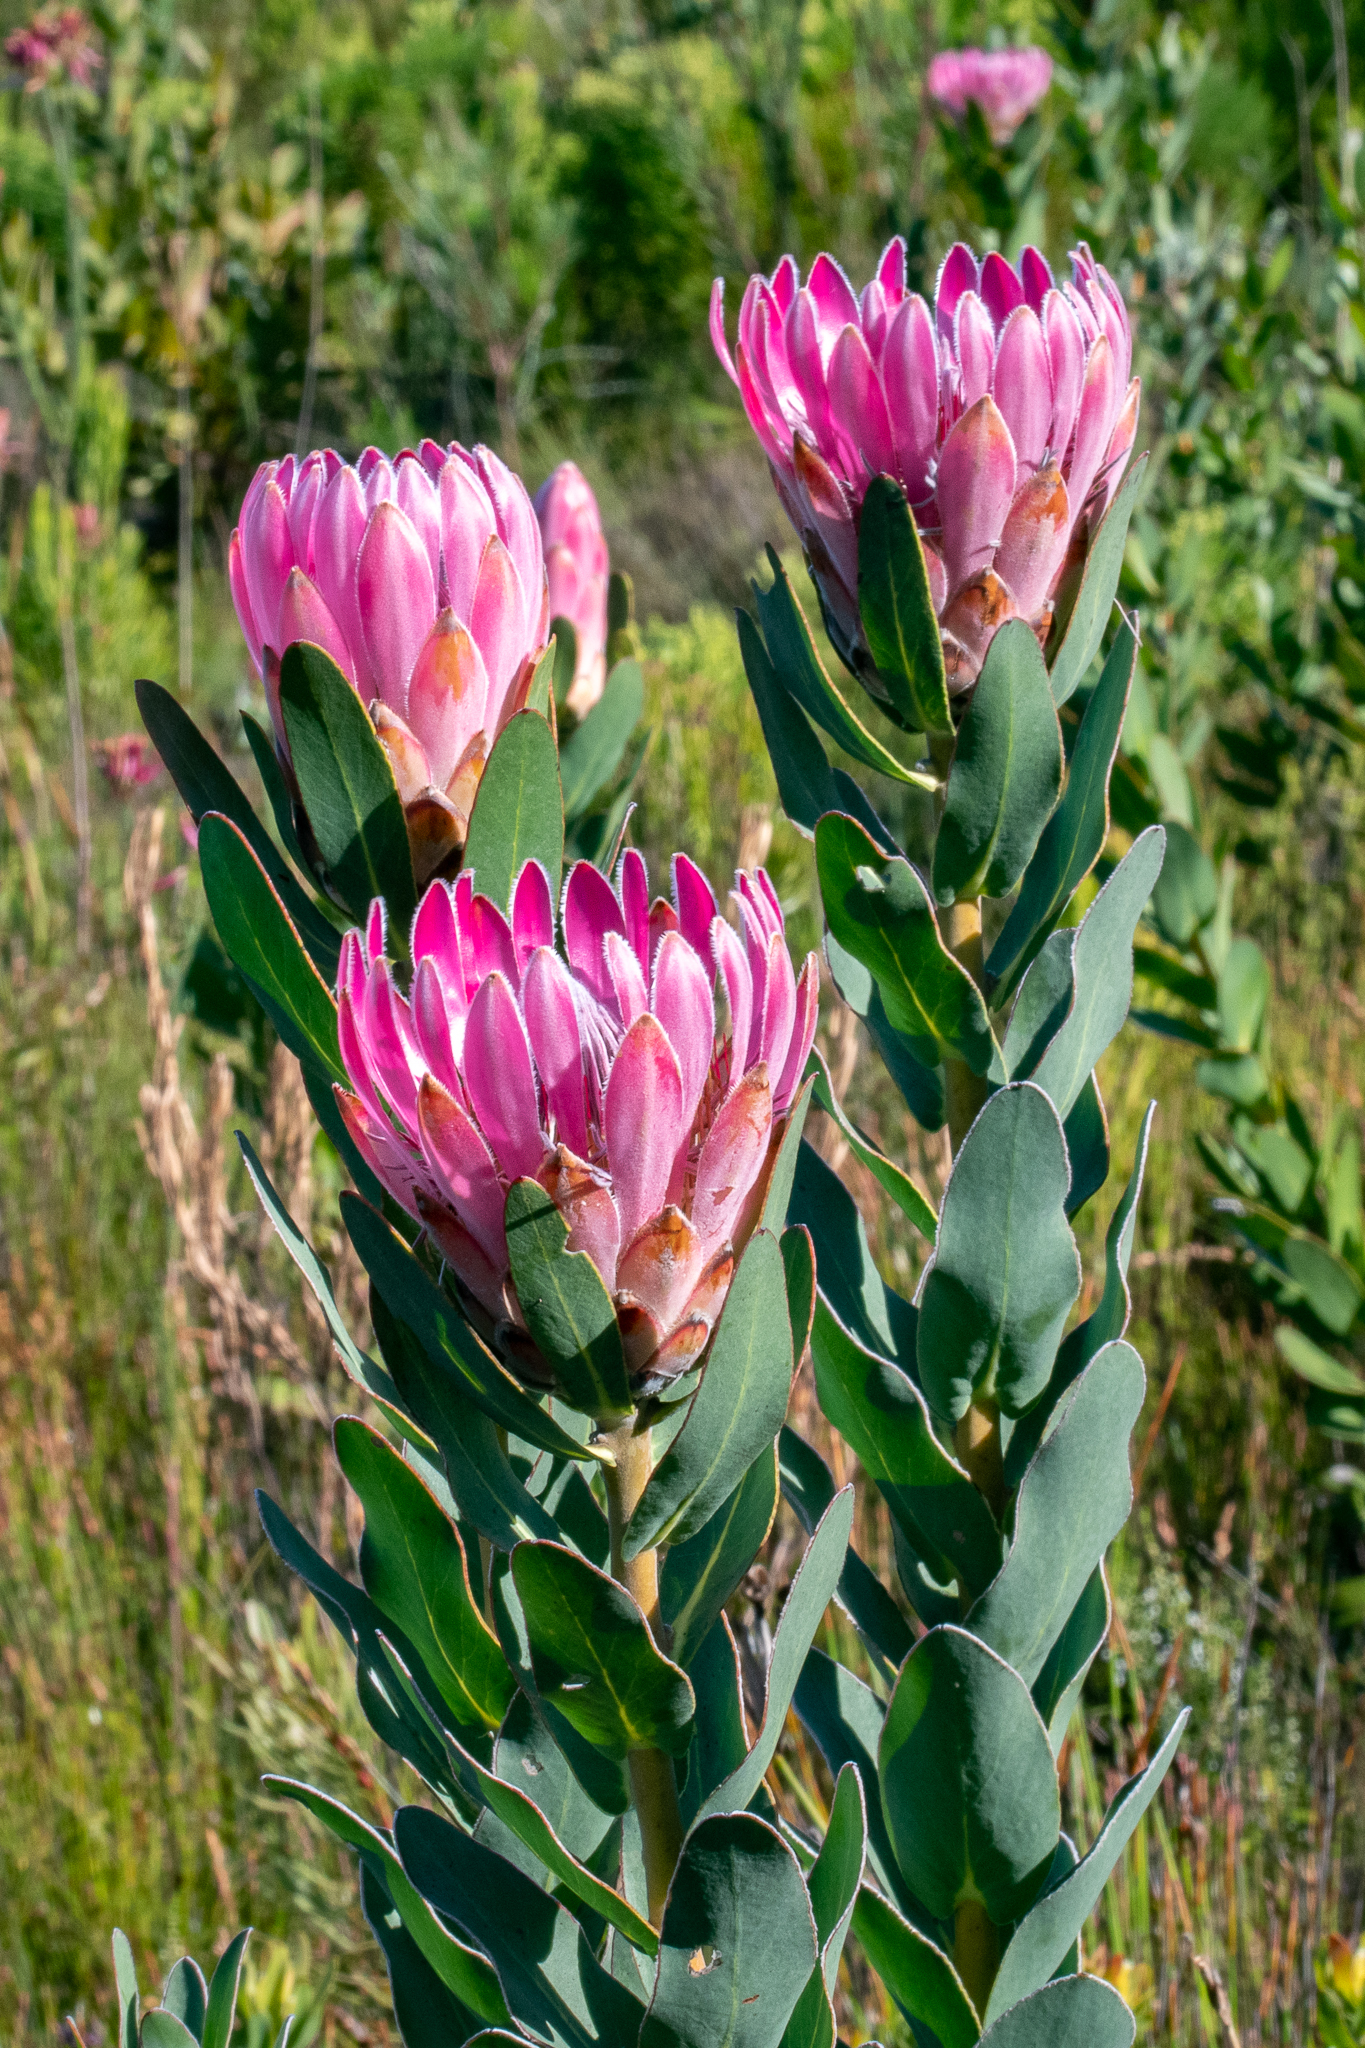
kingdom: Plantae
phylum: Tracheophyta
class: Magnoliopsida
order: Proteales
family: Proteaceae
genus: Protea
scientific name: Protea compacta
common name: Bot river protea
